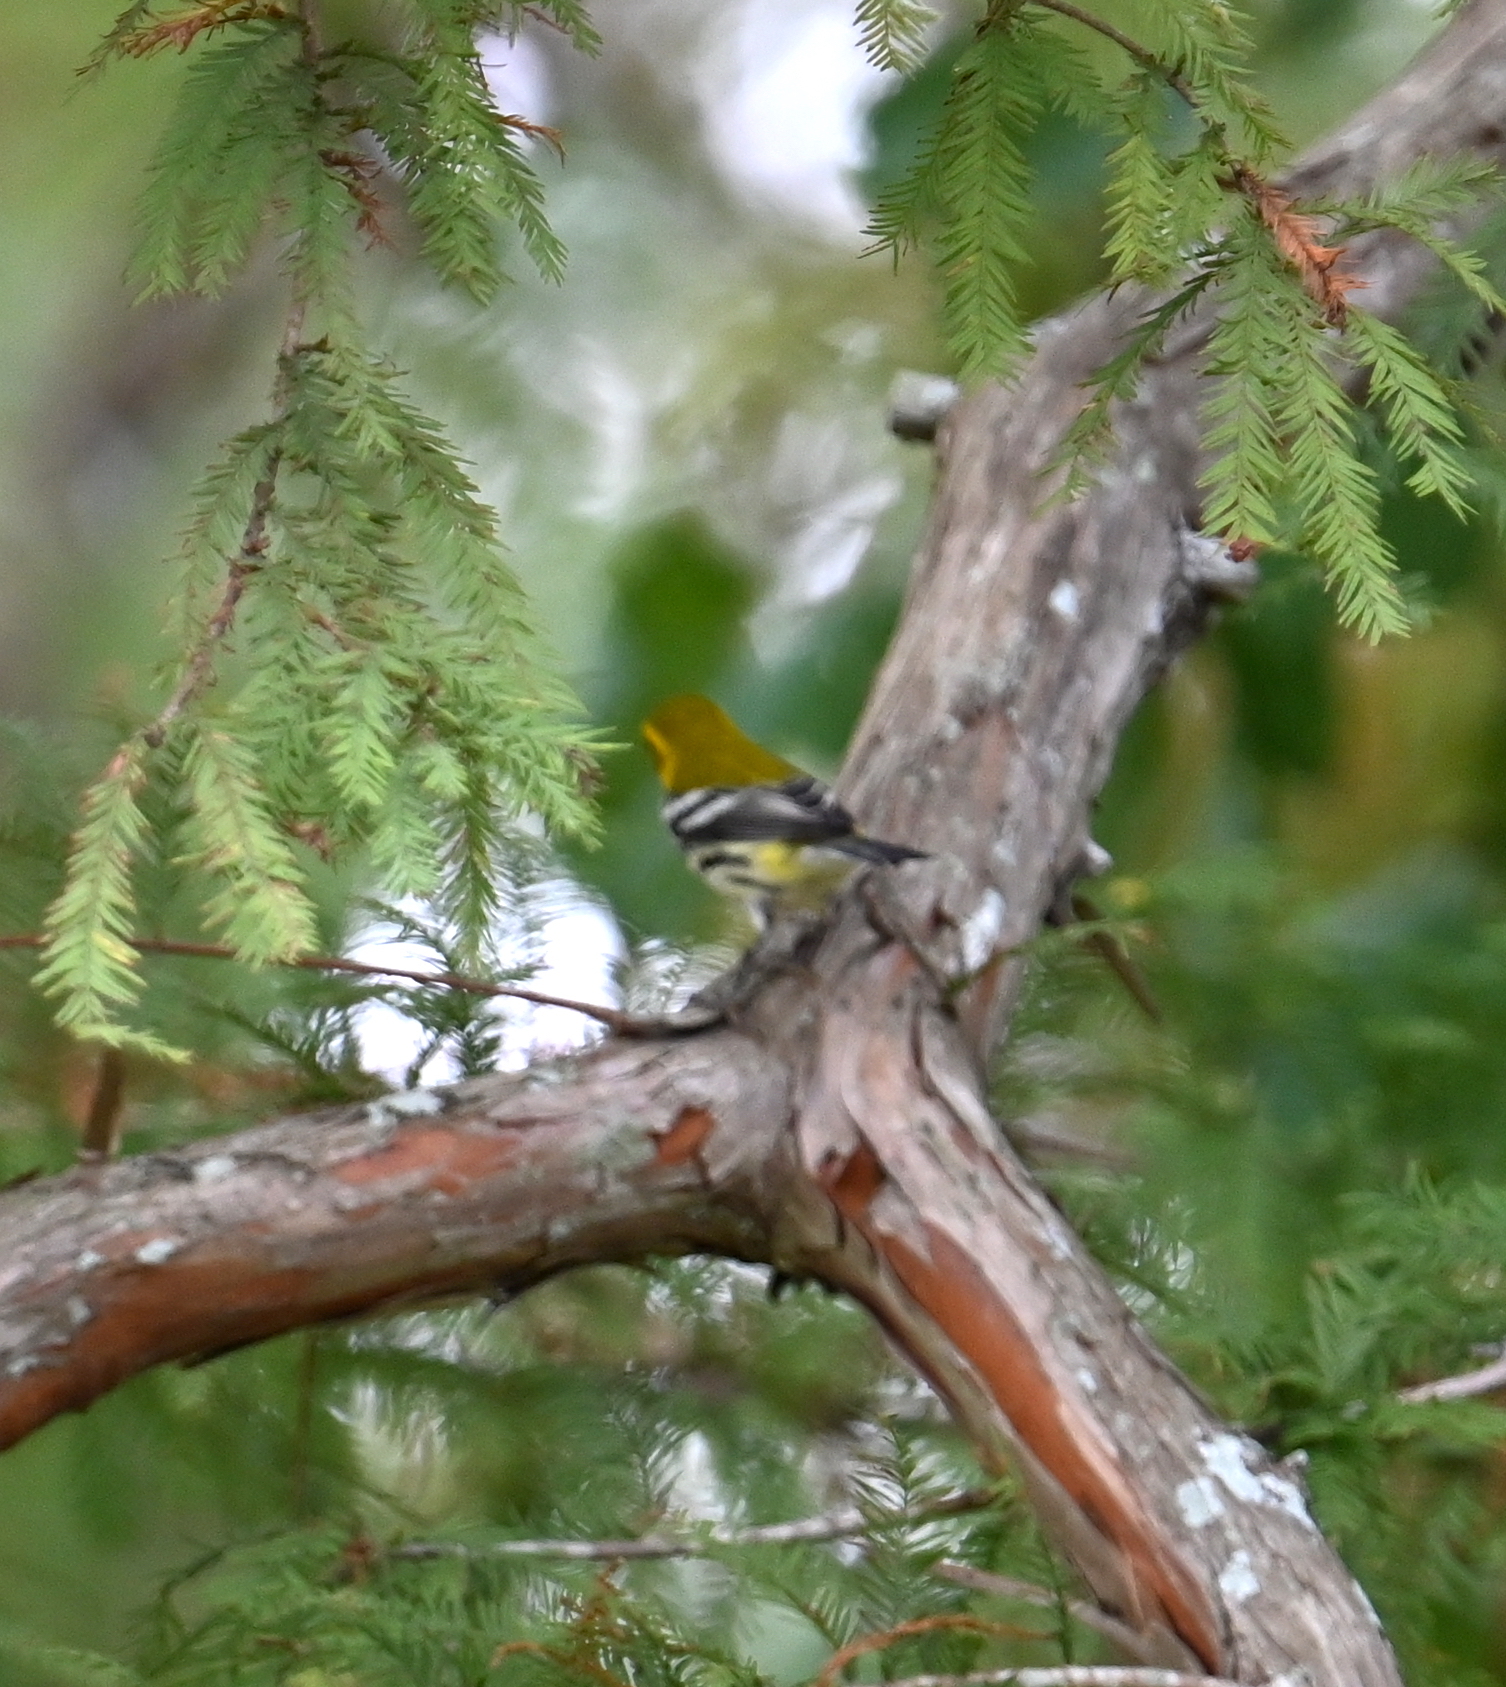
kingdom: Animalia
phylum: Chordata
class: Aves
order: Passeriformes
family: Parulidae
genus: Setophaga
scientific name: Setophaga virens
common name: Black-throated green warbler
